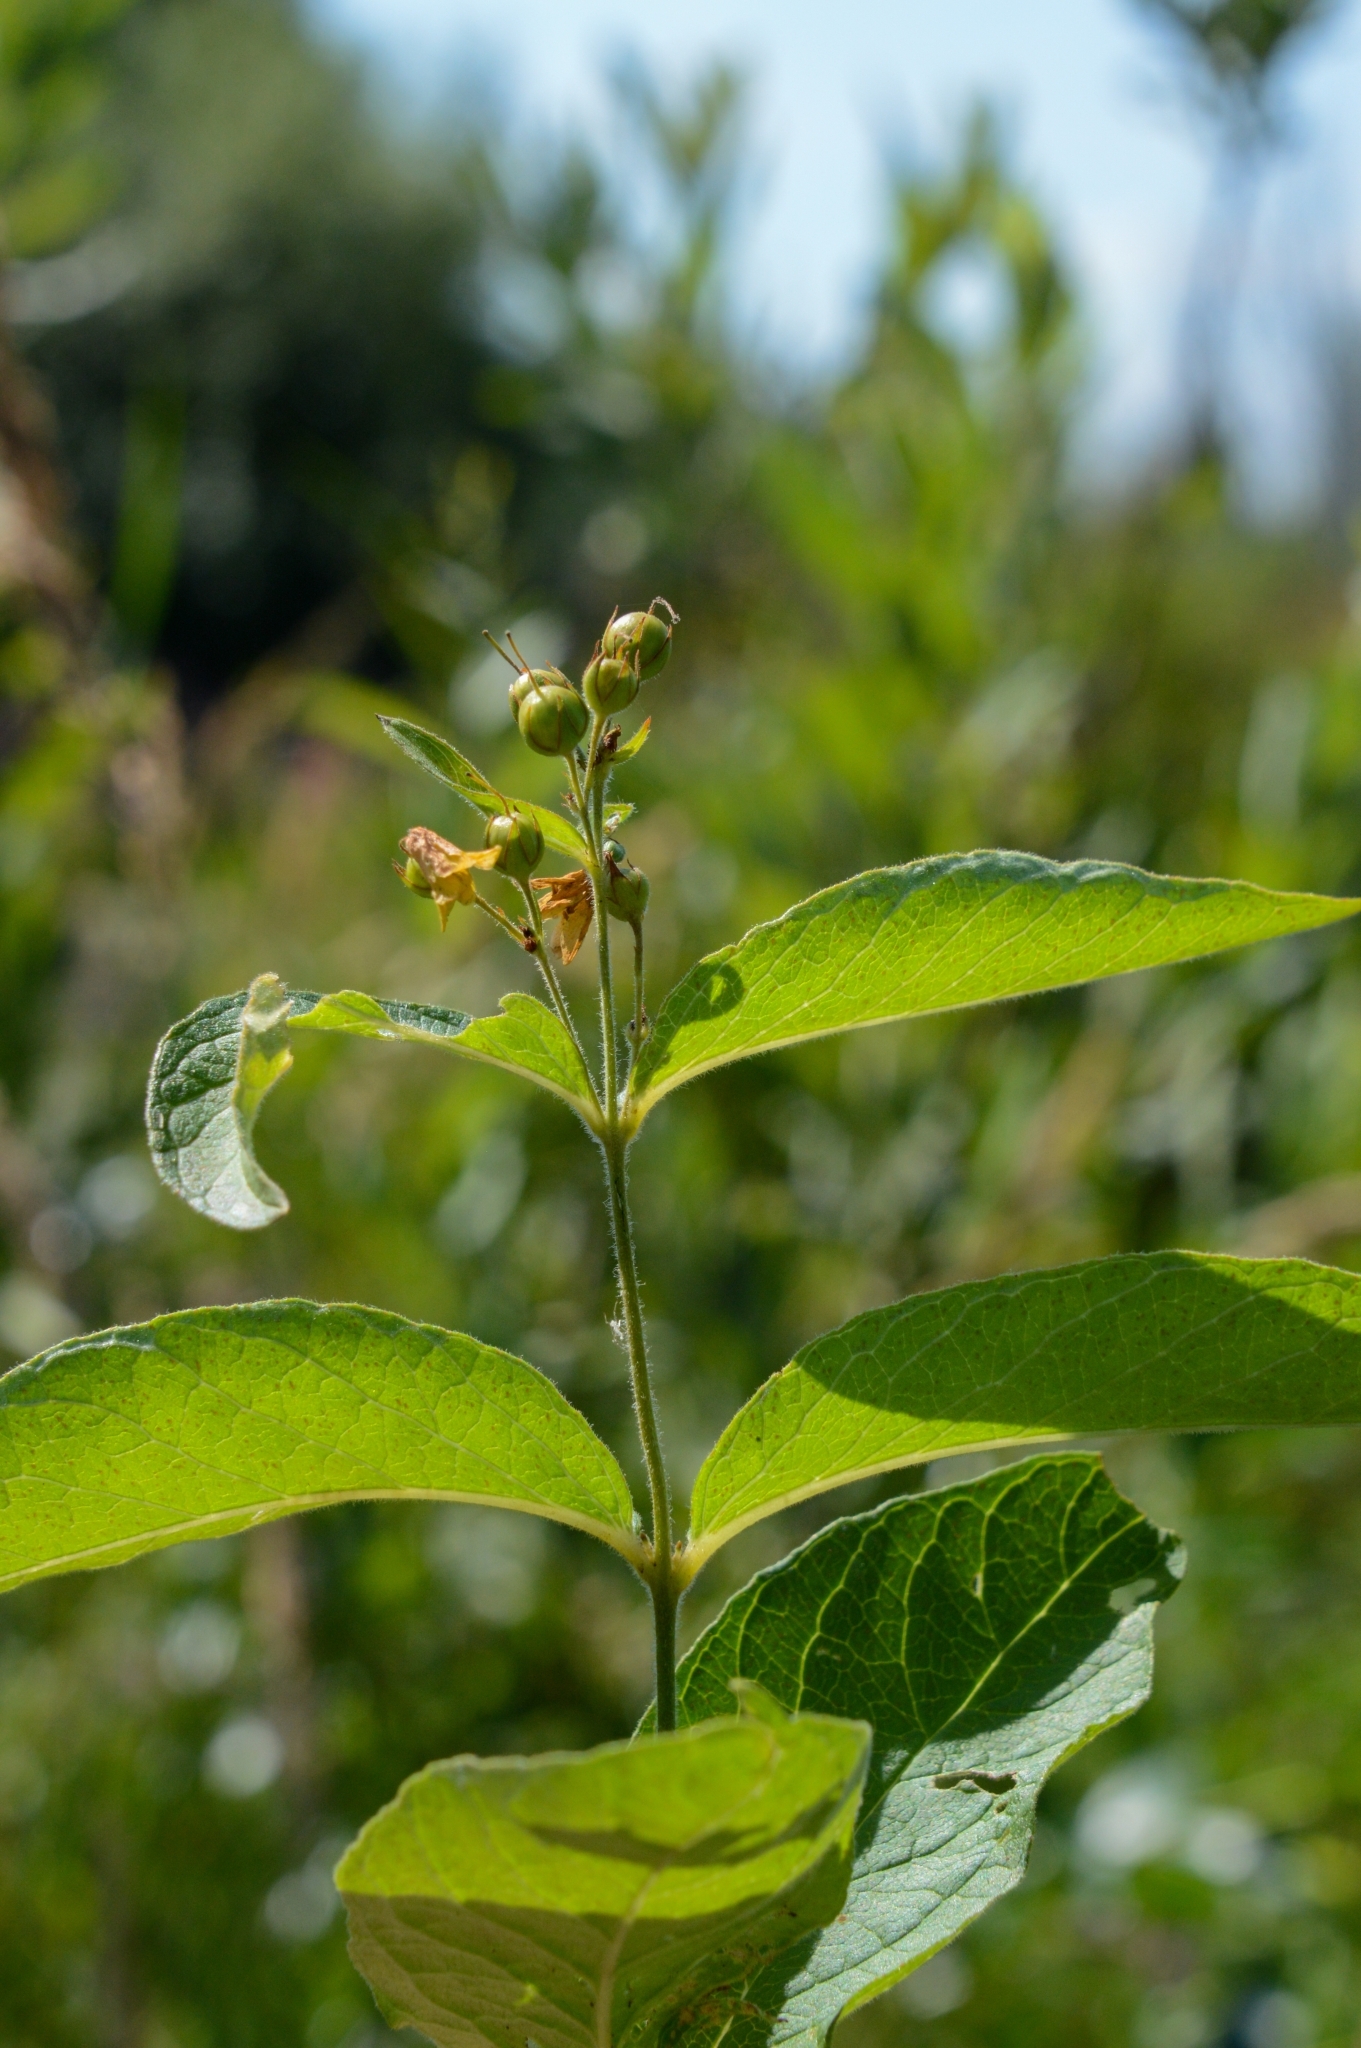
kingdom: Plantae
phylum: Tracheophyta
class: Magnoliopsida
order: Ericales
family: Primulaceae
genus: Lysimachia
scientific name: Lysimachia vulgaris
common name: Yellow loosestrife
